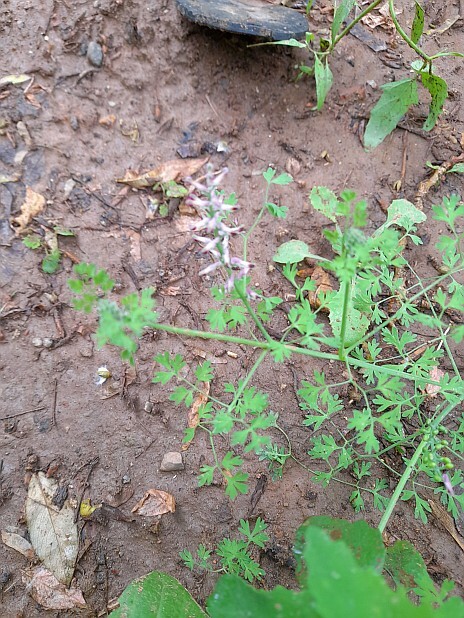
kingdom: Plantae
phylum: Tracheophyta
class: Magnoliopsida
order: Ranunculales
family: Papaveraceae
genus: Fumaria
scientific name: Fumaria officinalis
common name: Common fumitory
